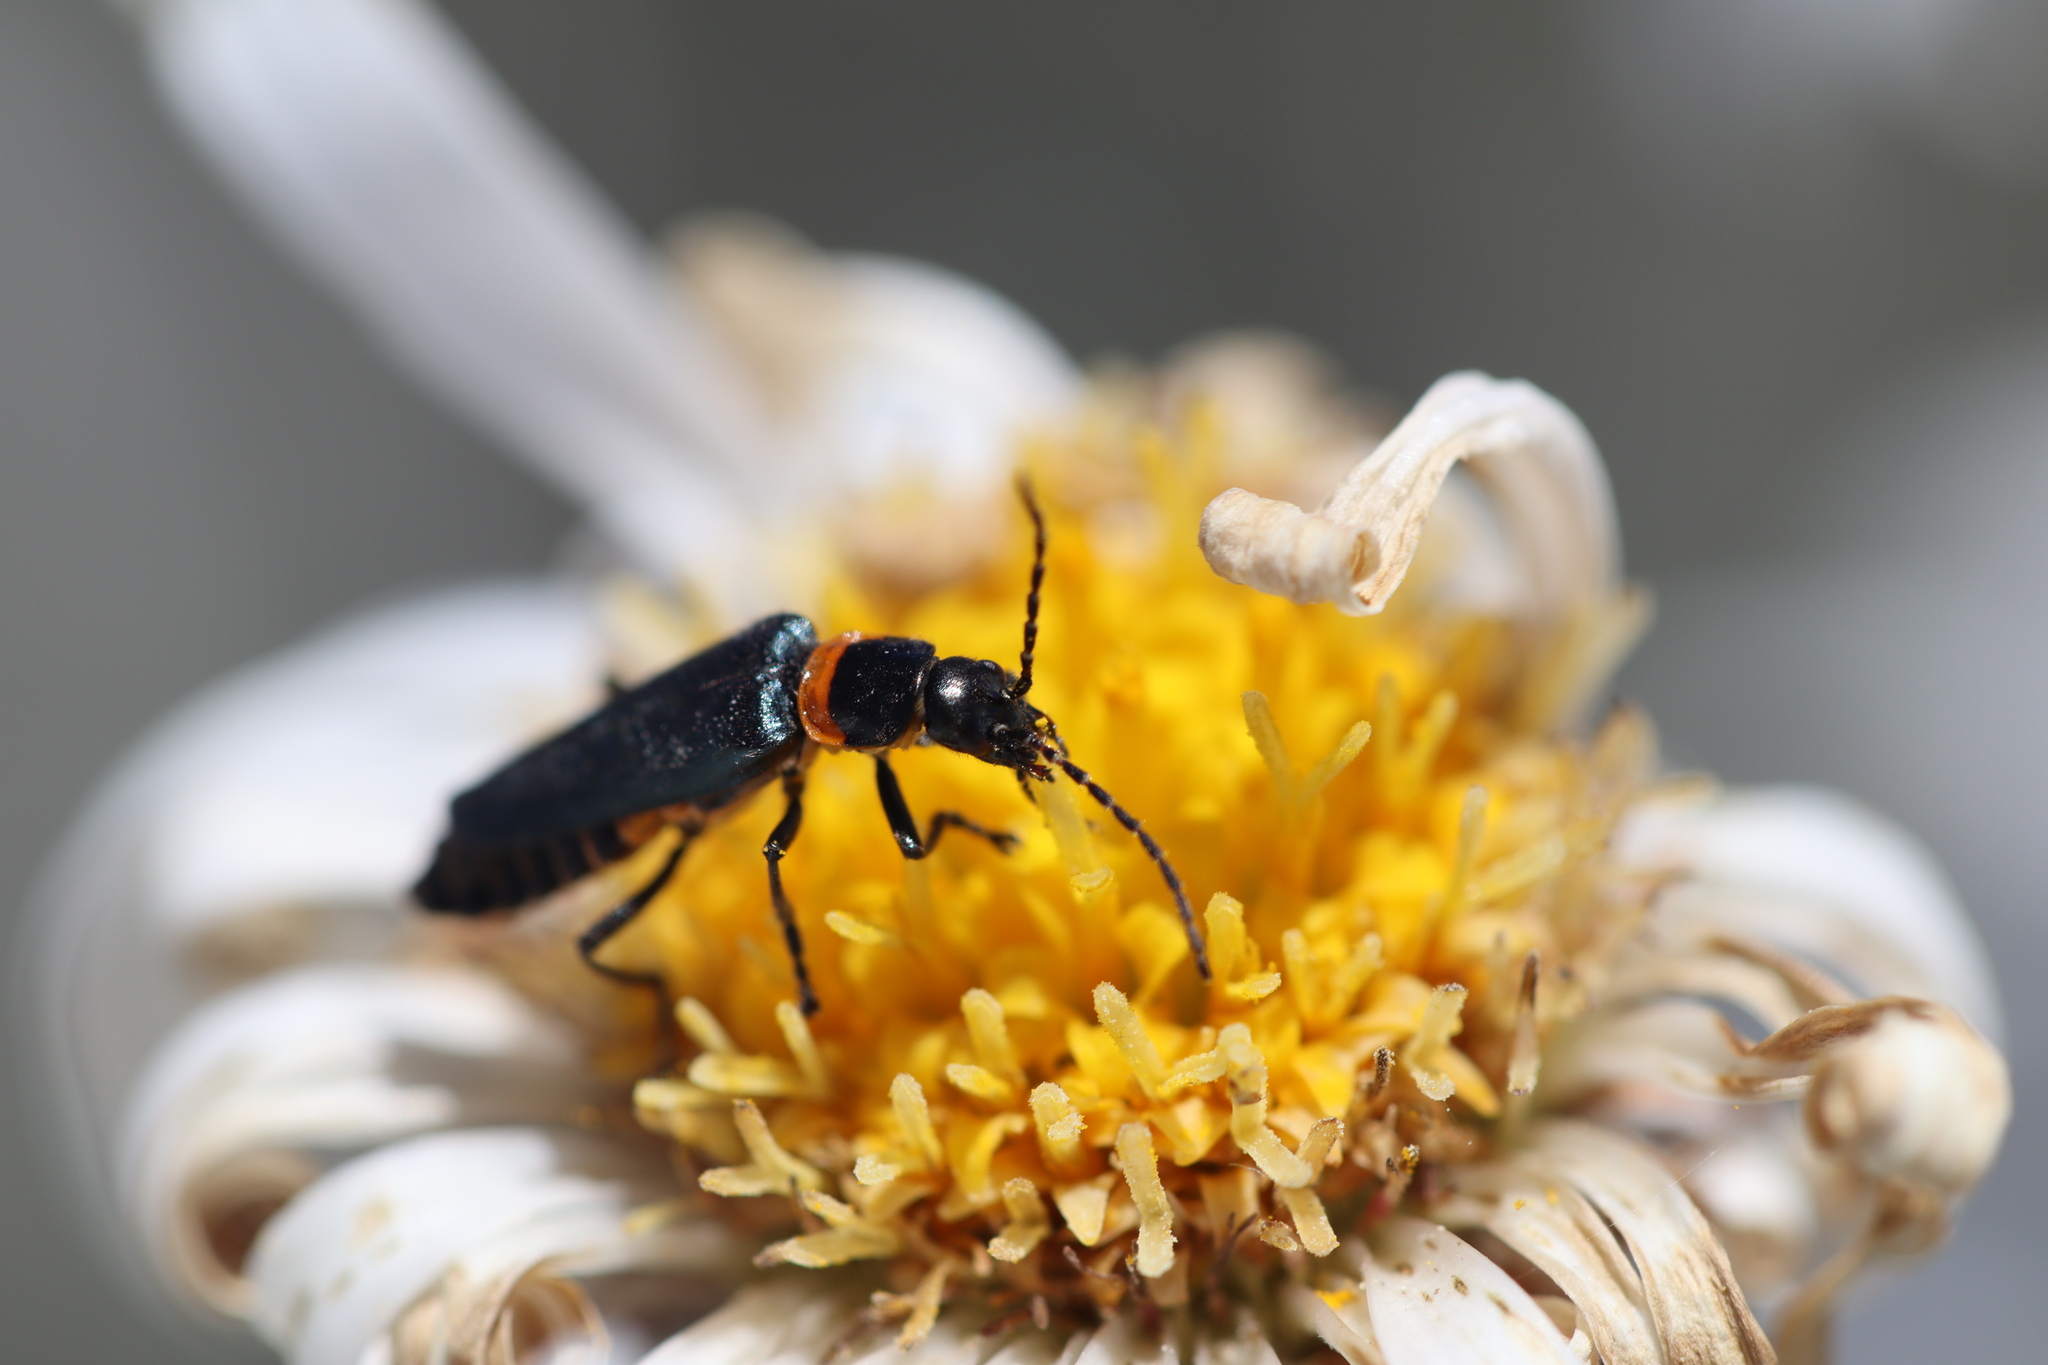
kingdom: Animalia
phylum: Arthropoda
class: Insecta
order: Coleoptera
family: Cantharidae
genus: Chauliognathus
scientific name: Chauliognathus
